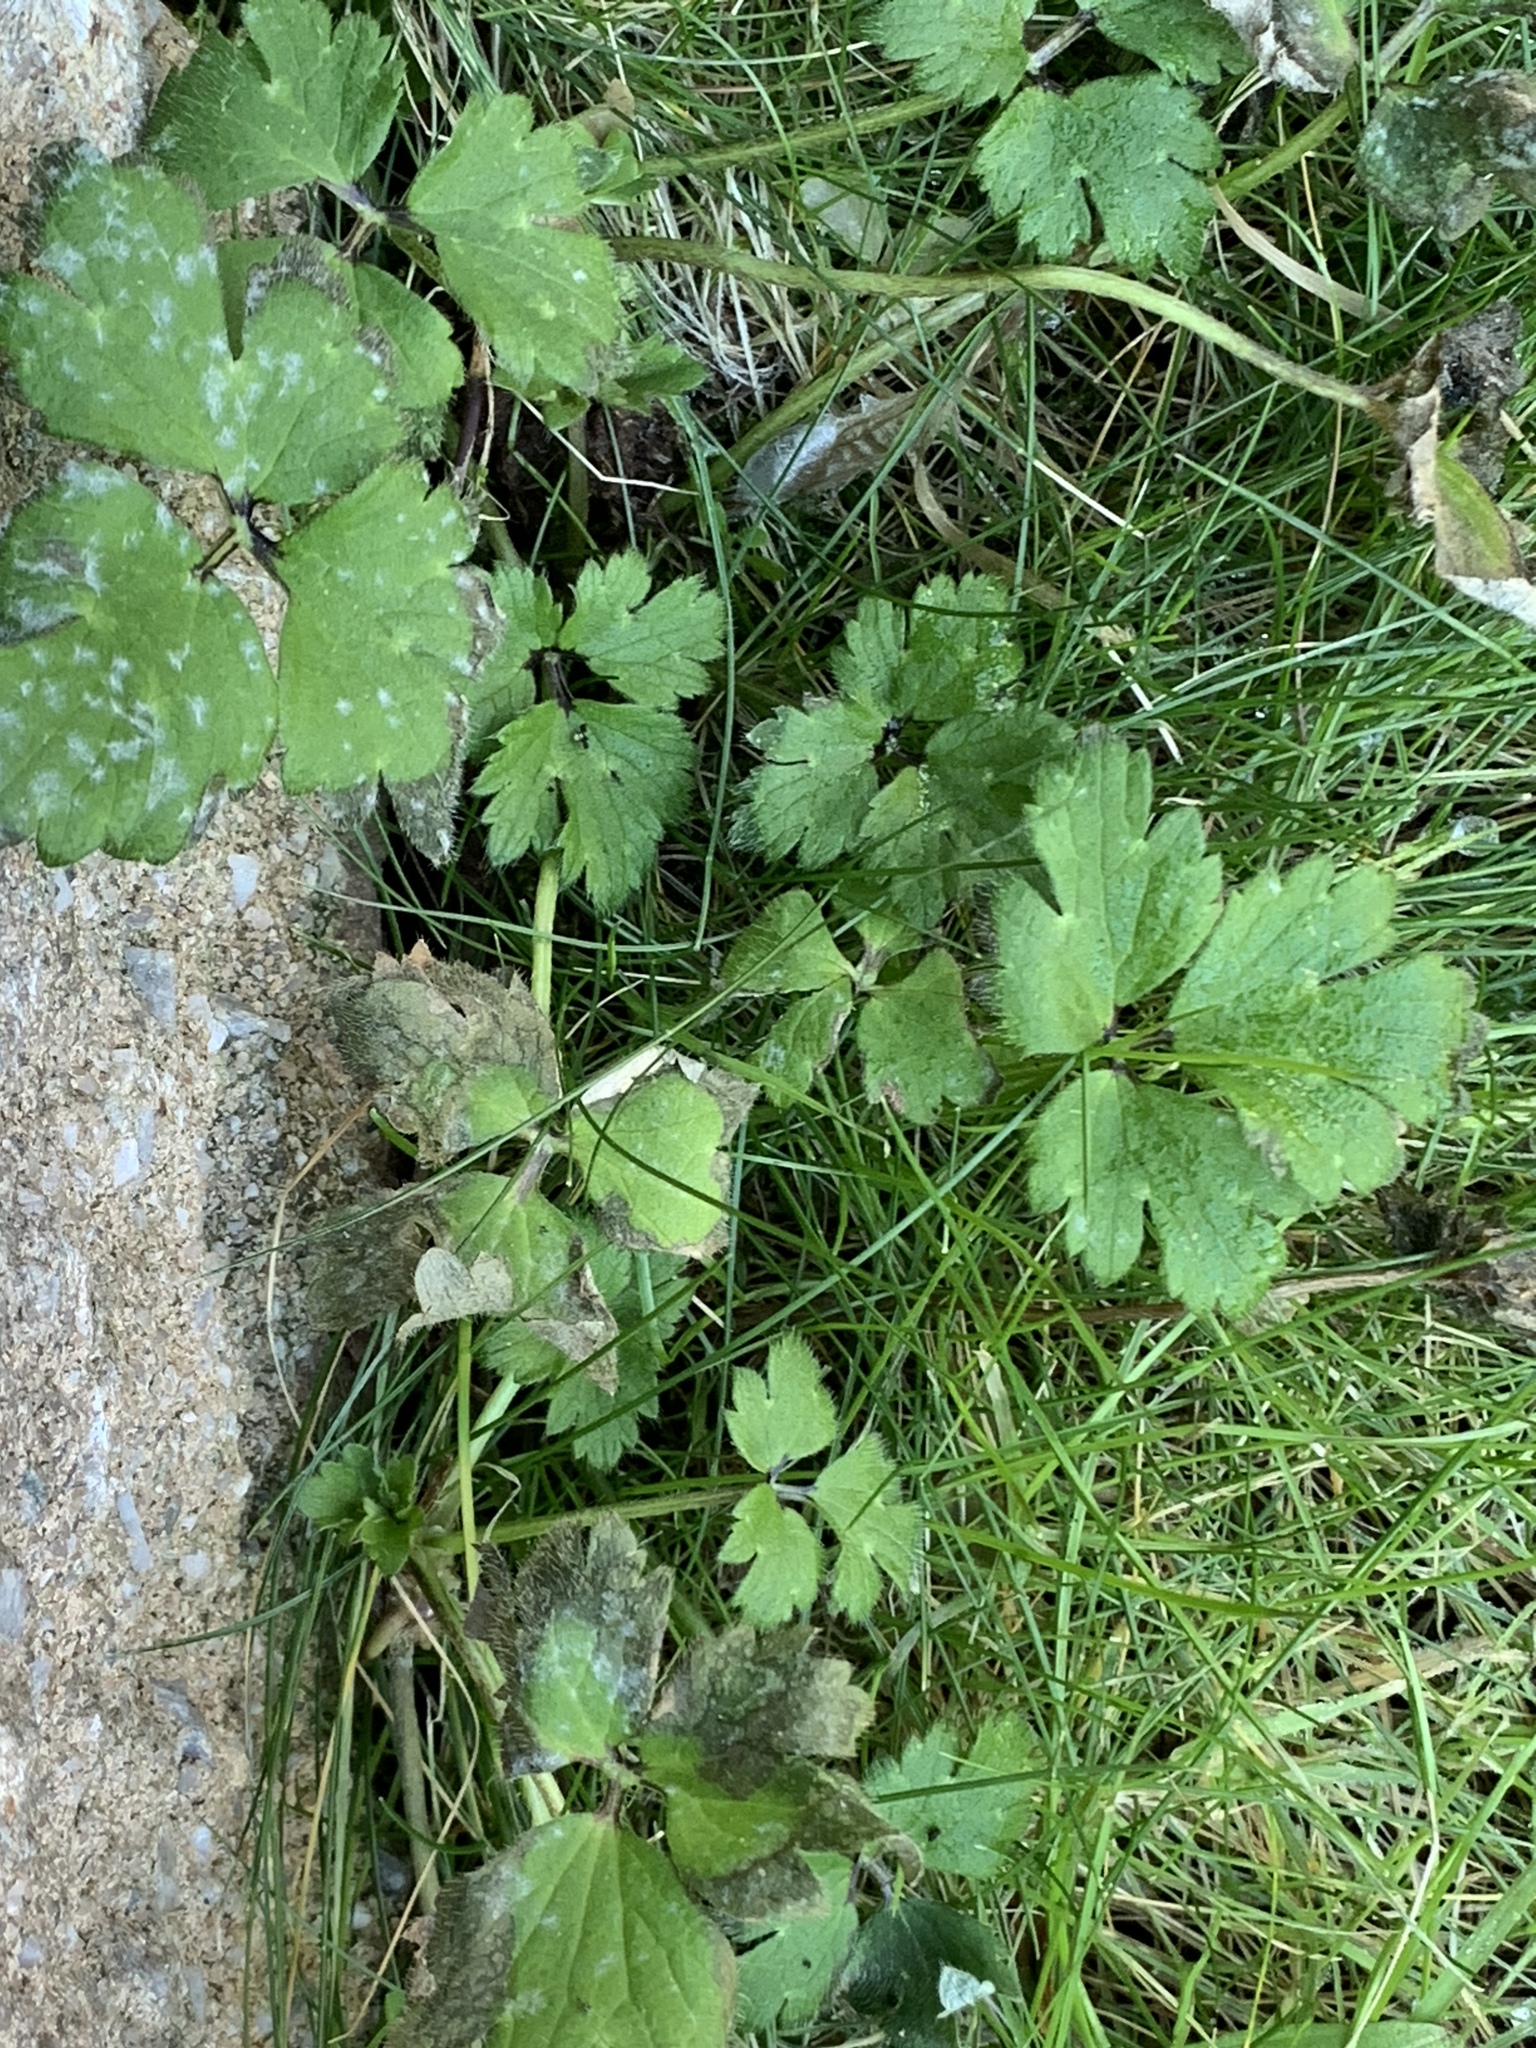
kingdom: Plantae
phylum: Tracheophyta
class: Magnoliopsida
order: Ranunculales
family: Ranunculaceae
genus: Ranunculus
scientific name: Ranunculus repens
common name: Creeping buttercup
